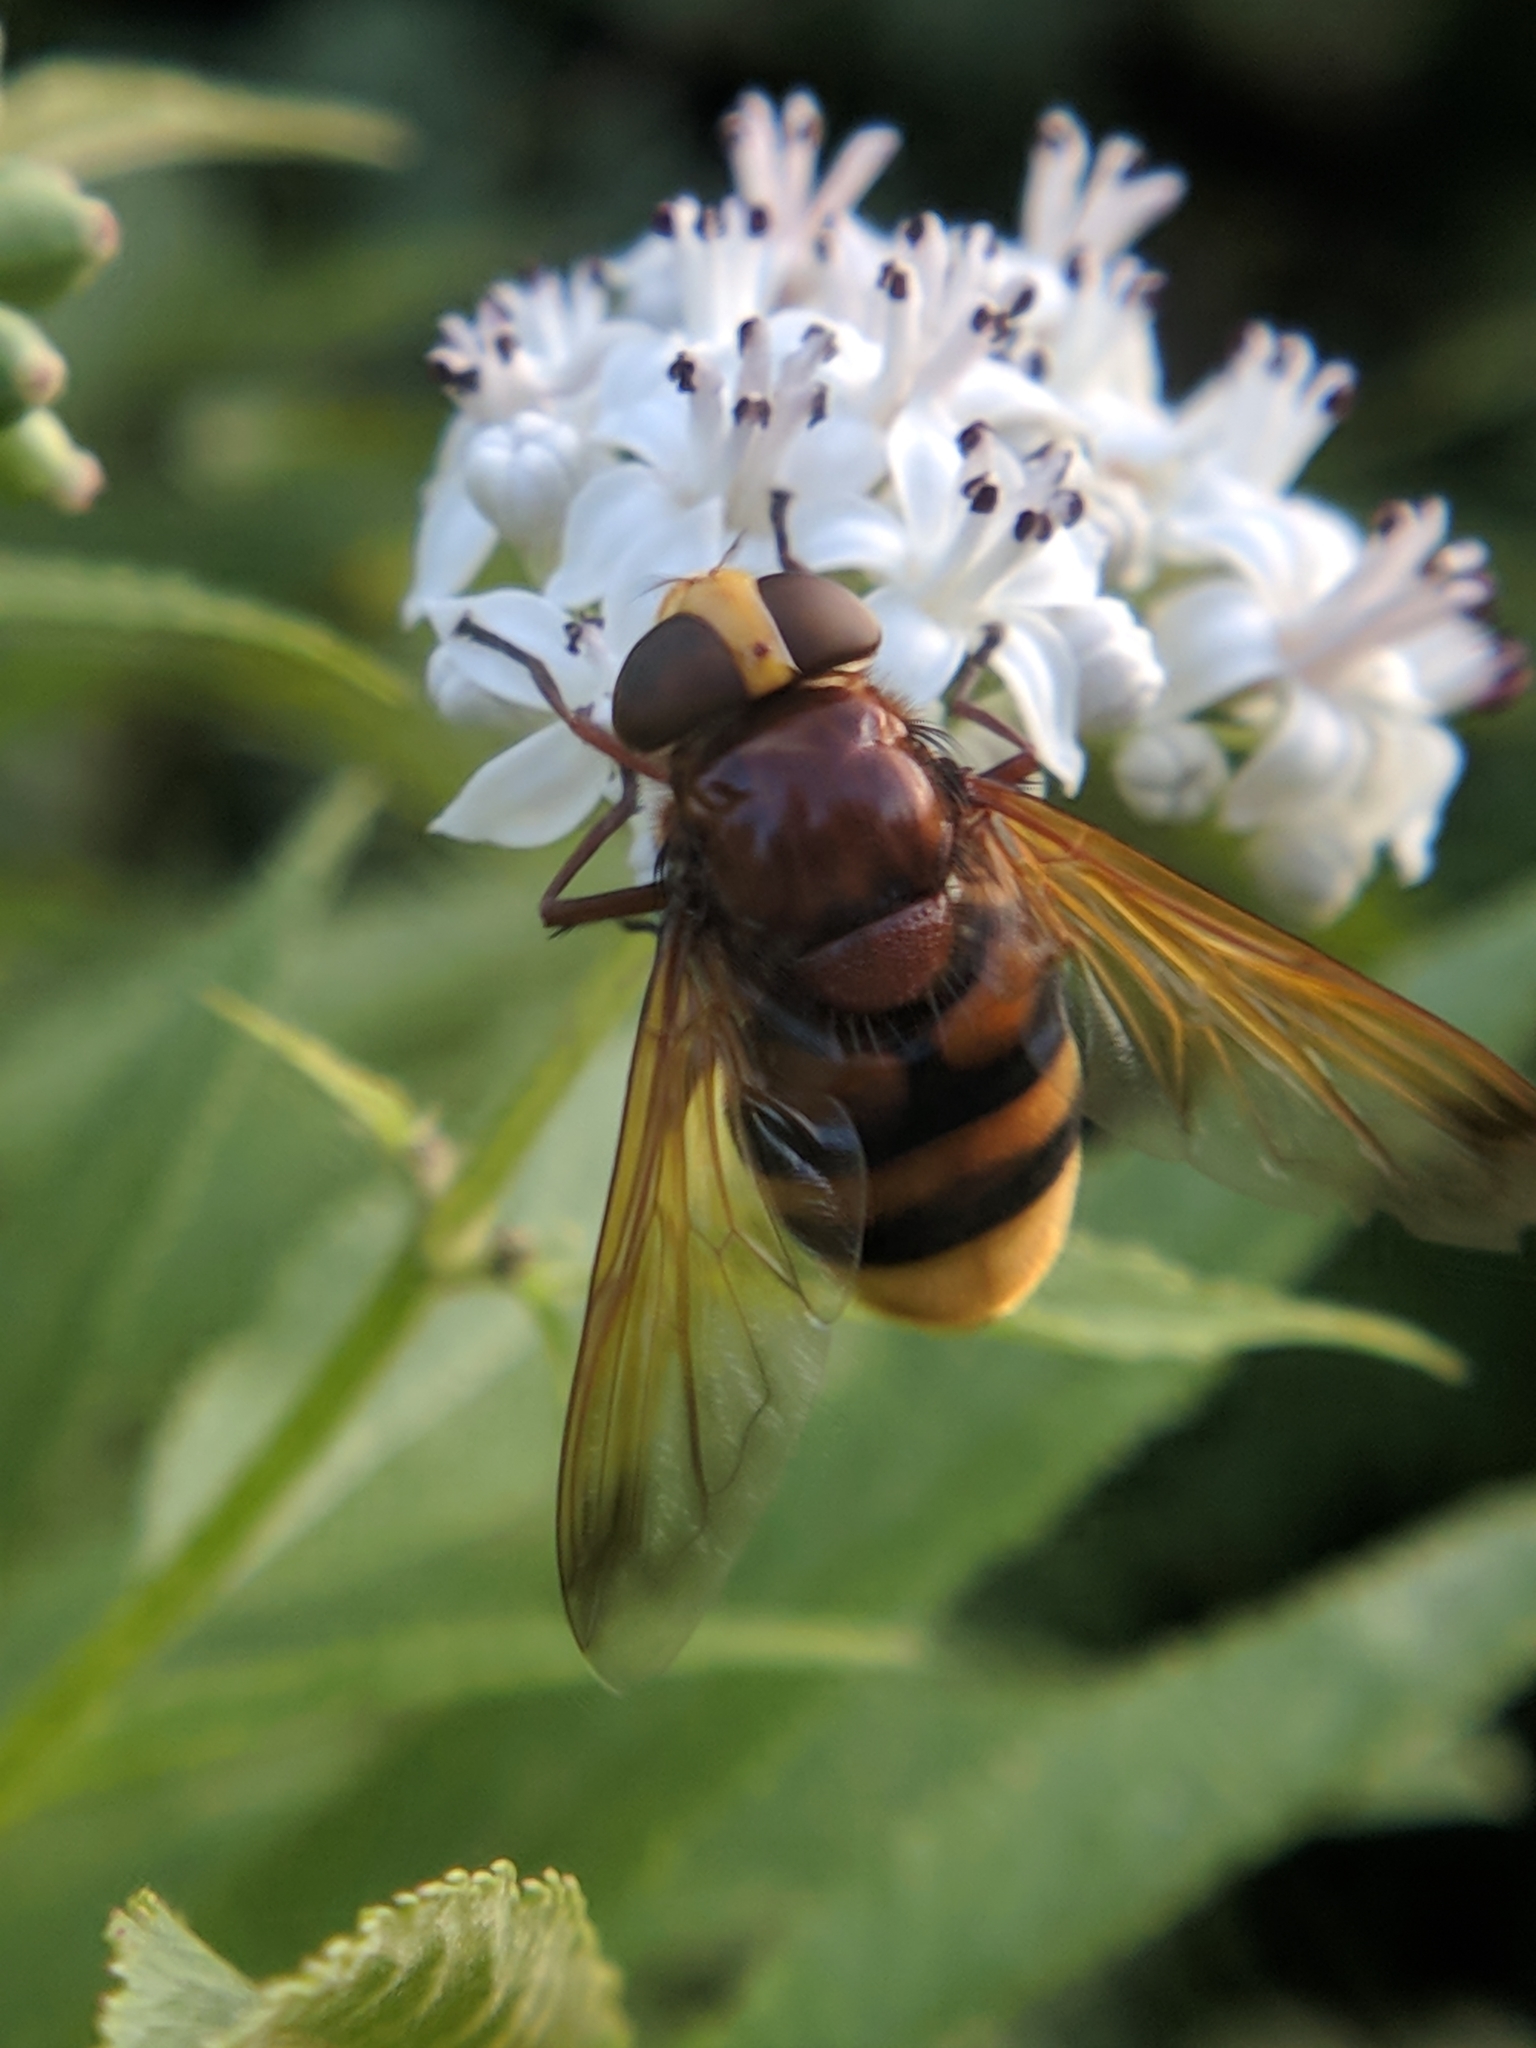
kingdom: Animalia
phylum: Arthropoda
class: Insecta
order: Diptera
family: Syrphidae
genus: Volucella
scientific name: Volucella zonaria
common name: Hornet hoverfly
